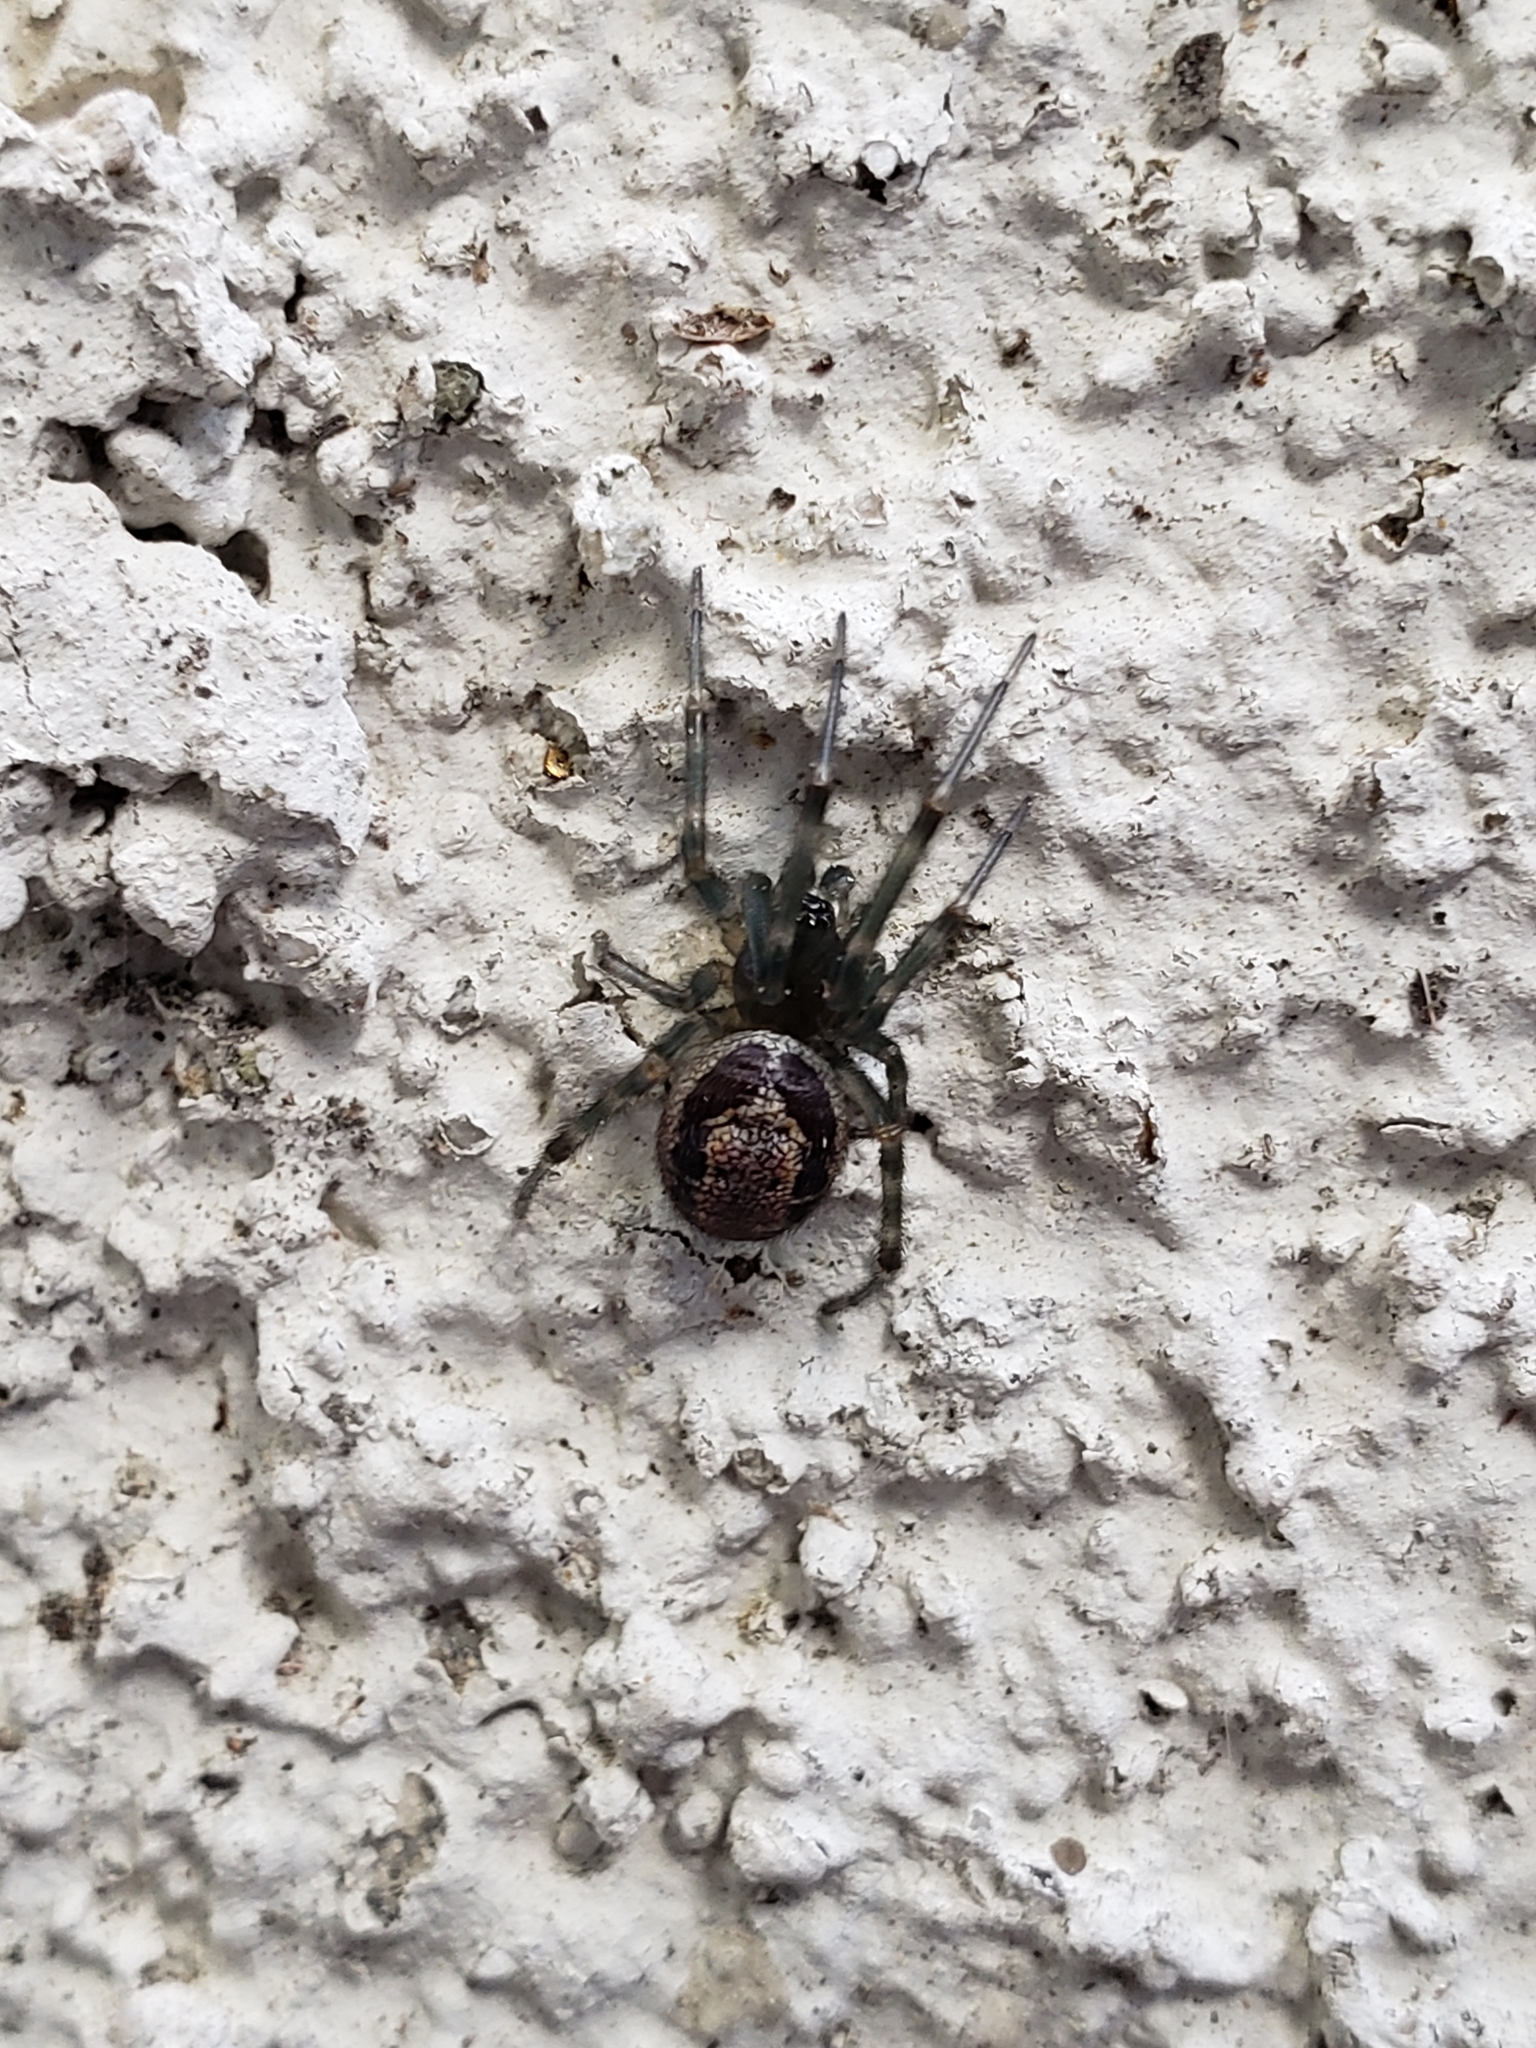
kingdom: Animalia
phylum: Arthropoda
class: Arachnida
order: Araneae
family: Theridiidae
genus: Steatoda
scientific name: Steatoda nobilis
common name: Cobweb weaver
